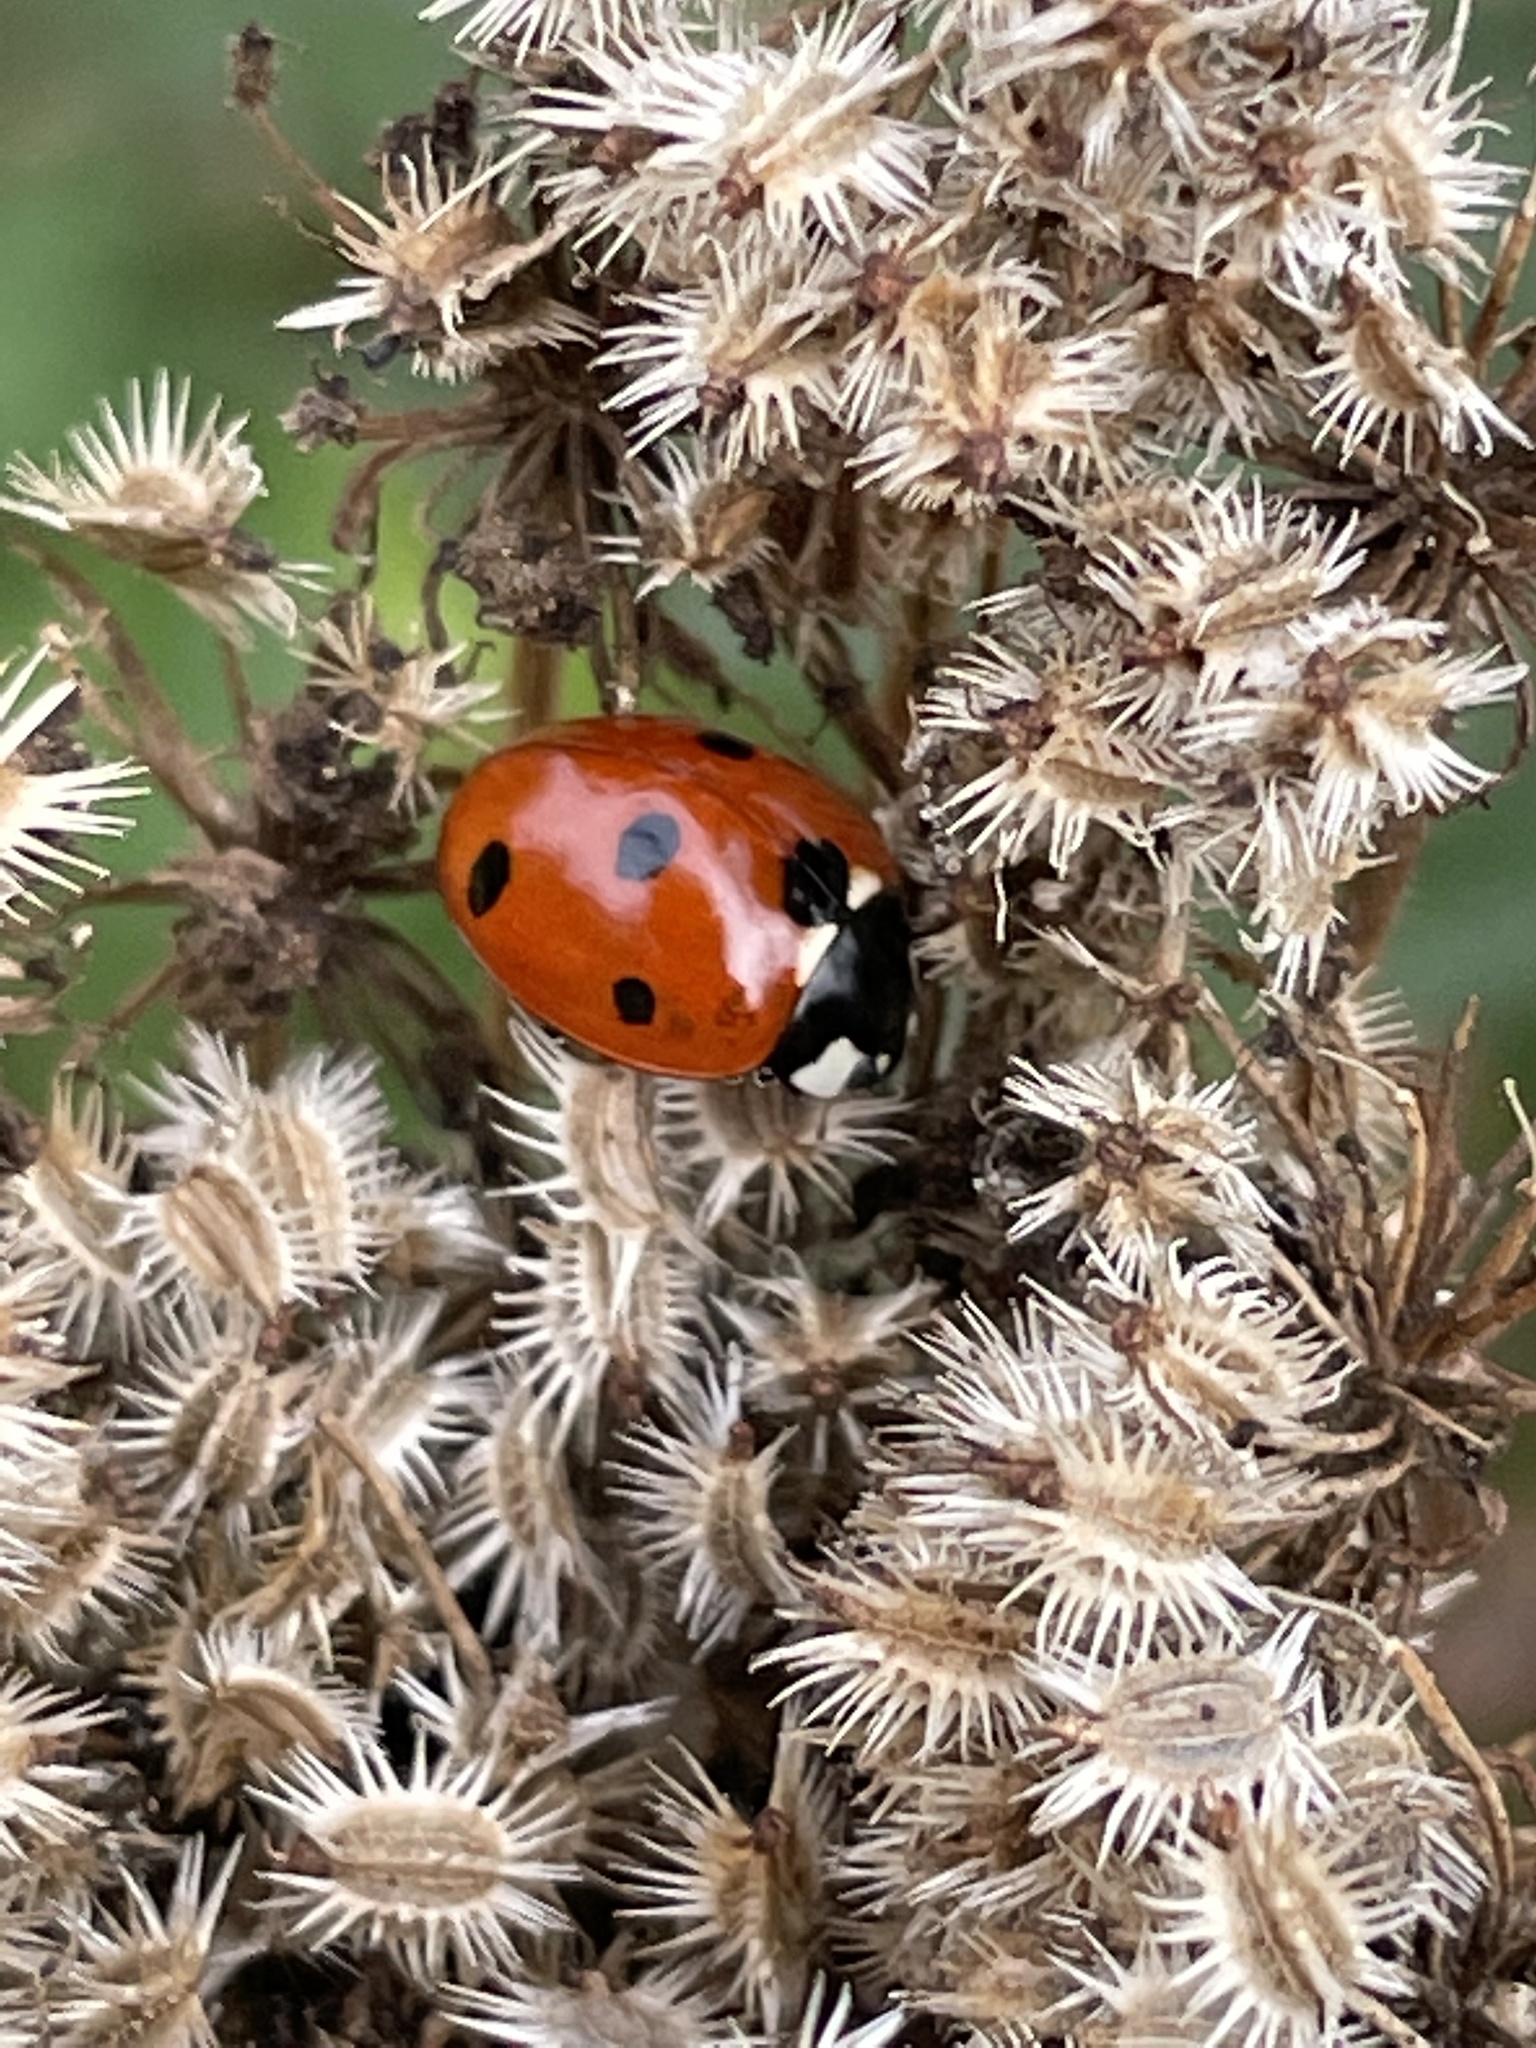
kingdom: Animalia
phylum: Arthropoda
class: Insecta
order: Coleoptera
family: Coccinellidae
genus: Coccinella
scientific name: Coccinella septempunctata
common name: Sevenspotted lady beetle
